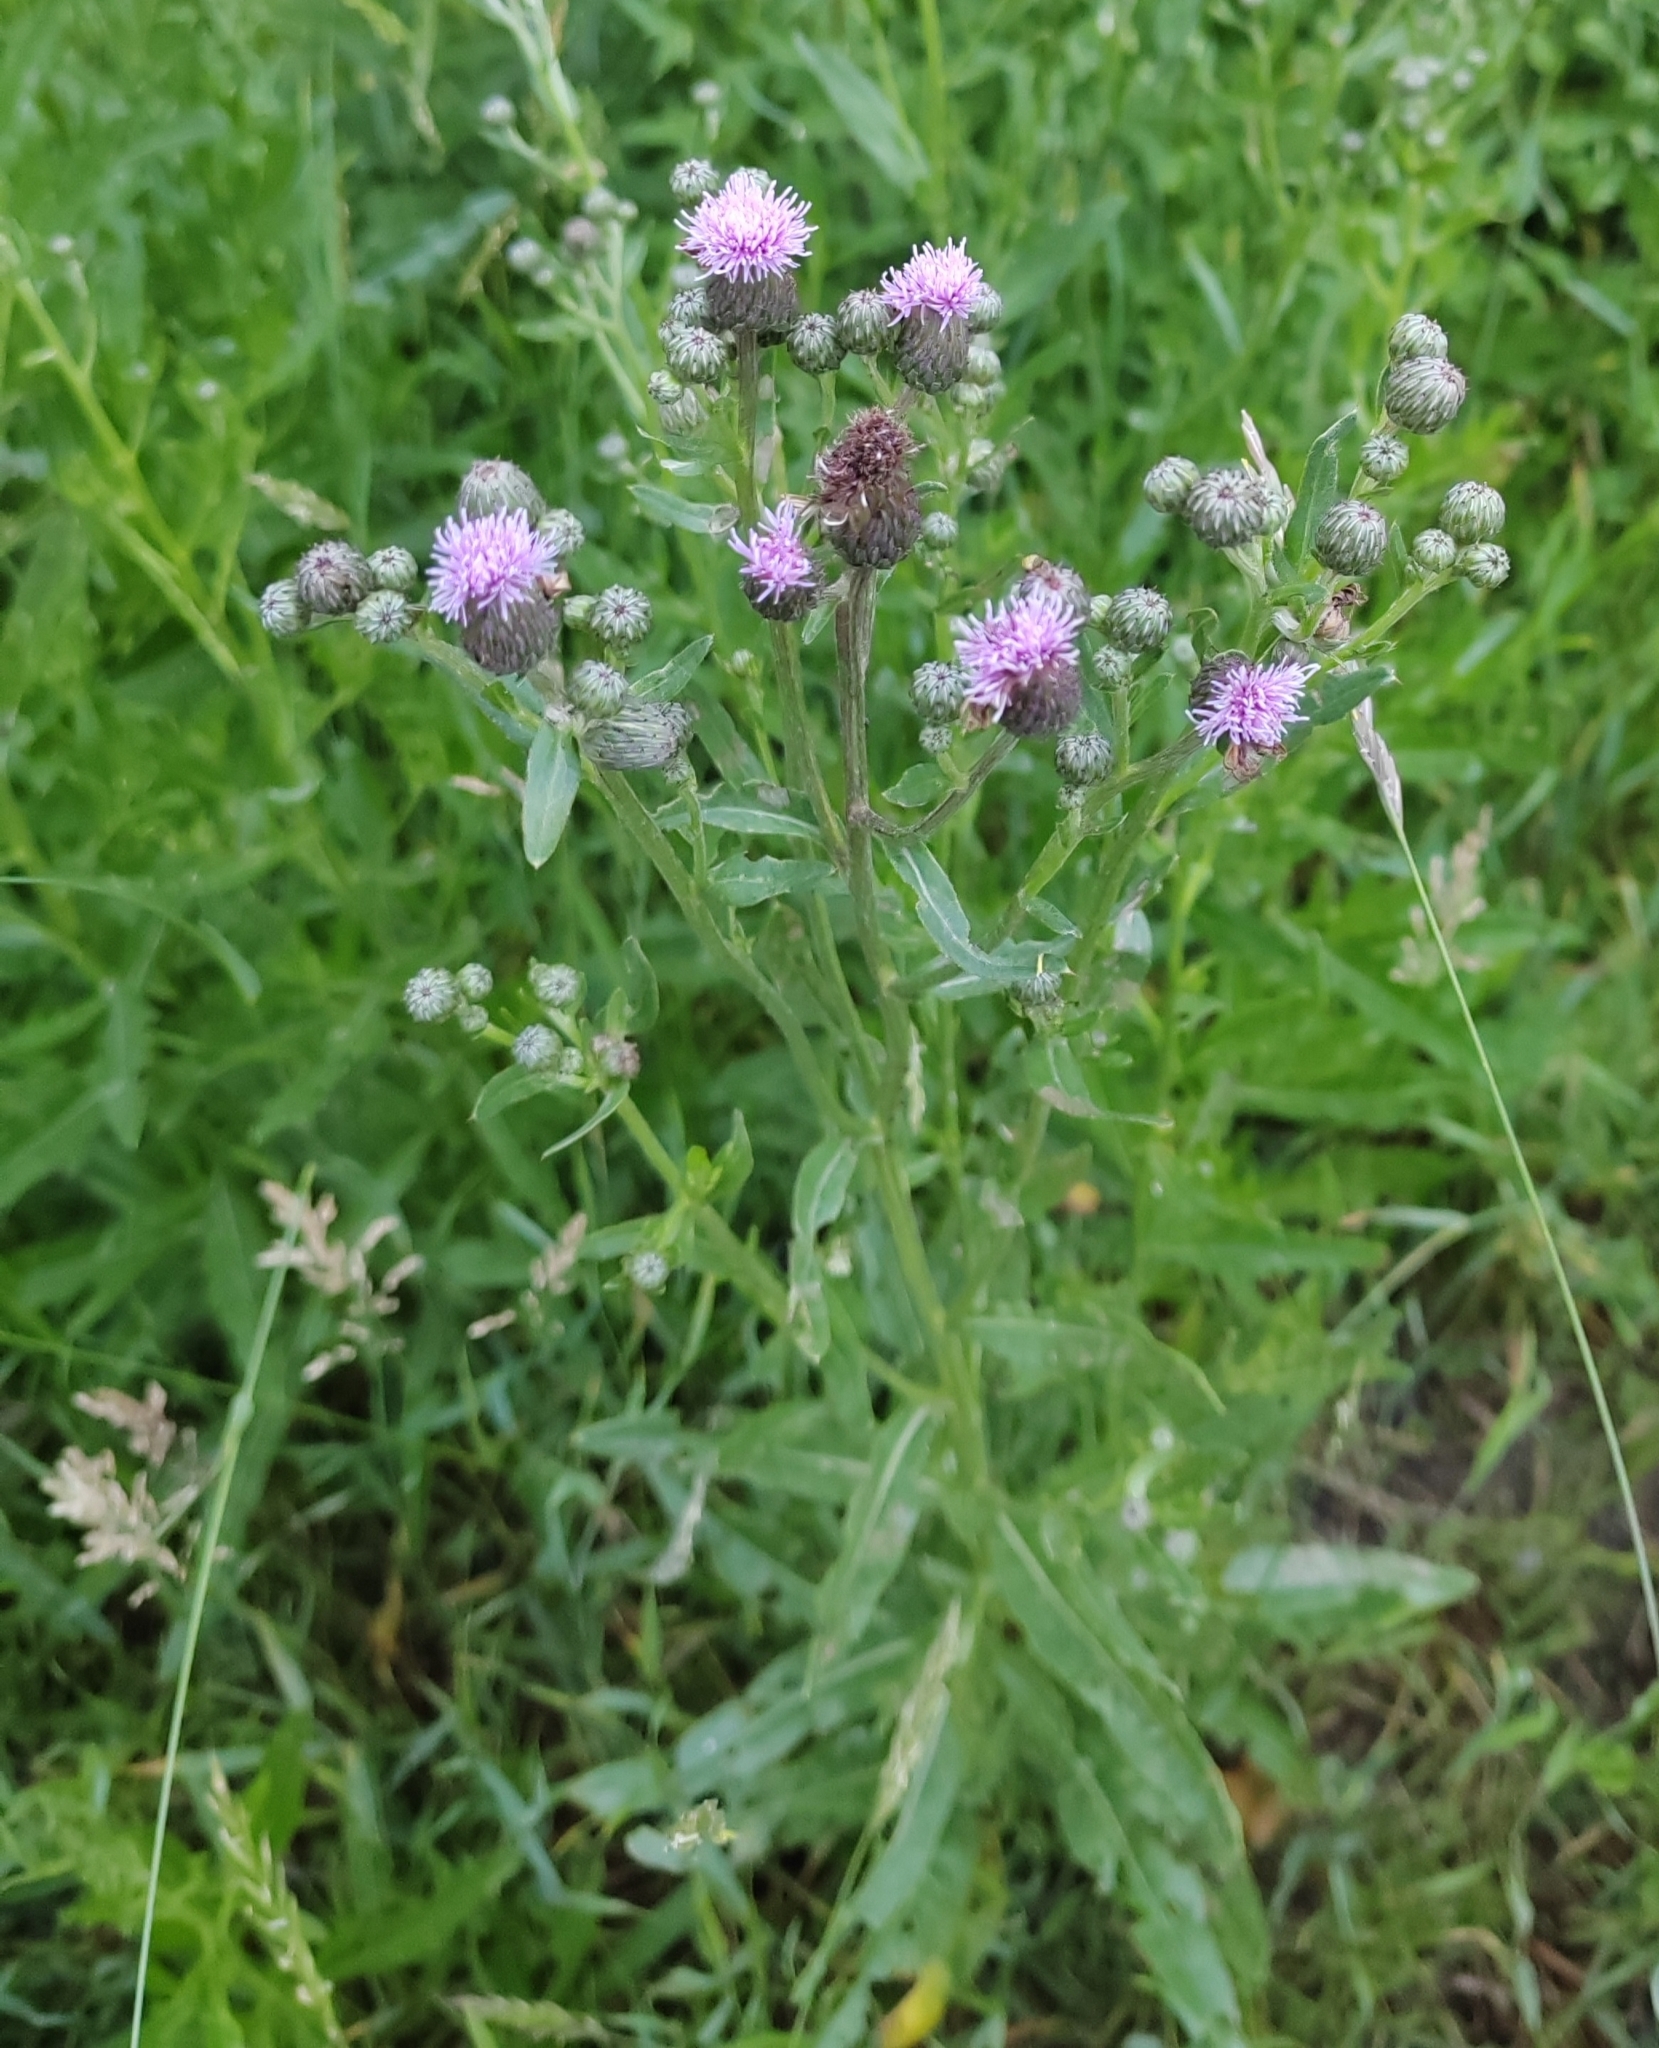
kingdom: Plantae
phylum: Tracheophyta
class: Magnoliopsida
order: Asterales
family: Asteraceae
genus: Cirsium
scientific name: Cirsium arvense
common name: Creeping thistle
